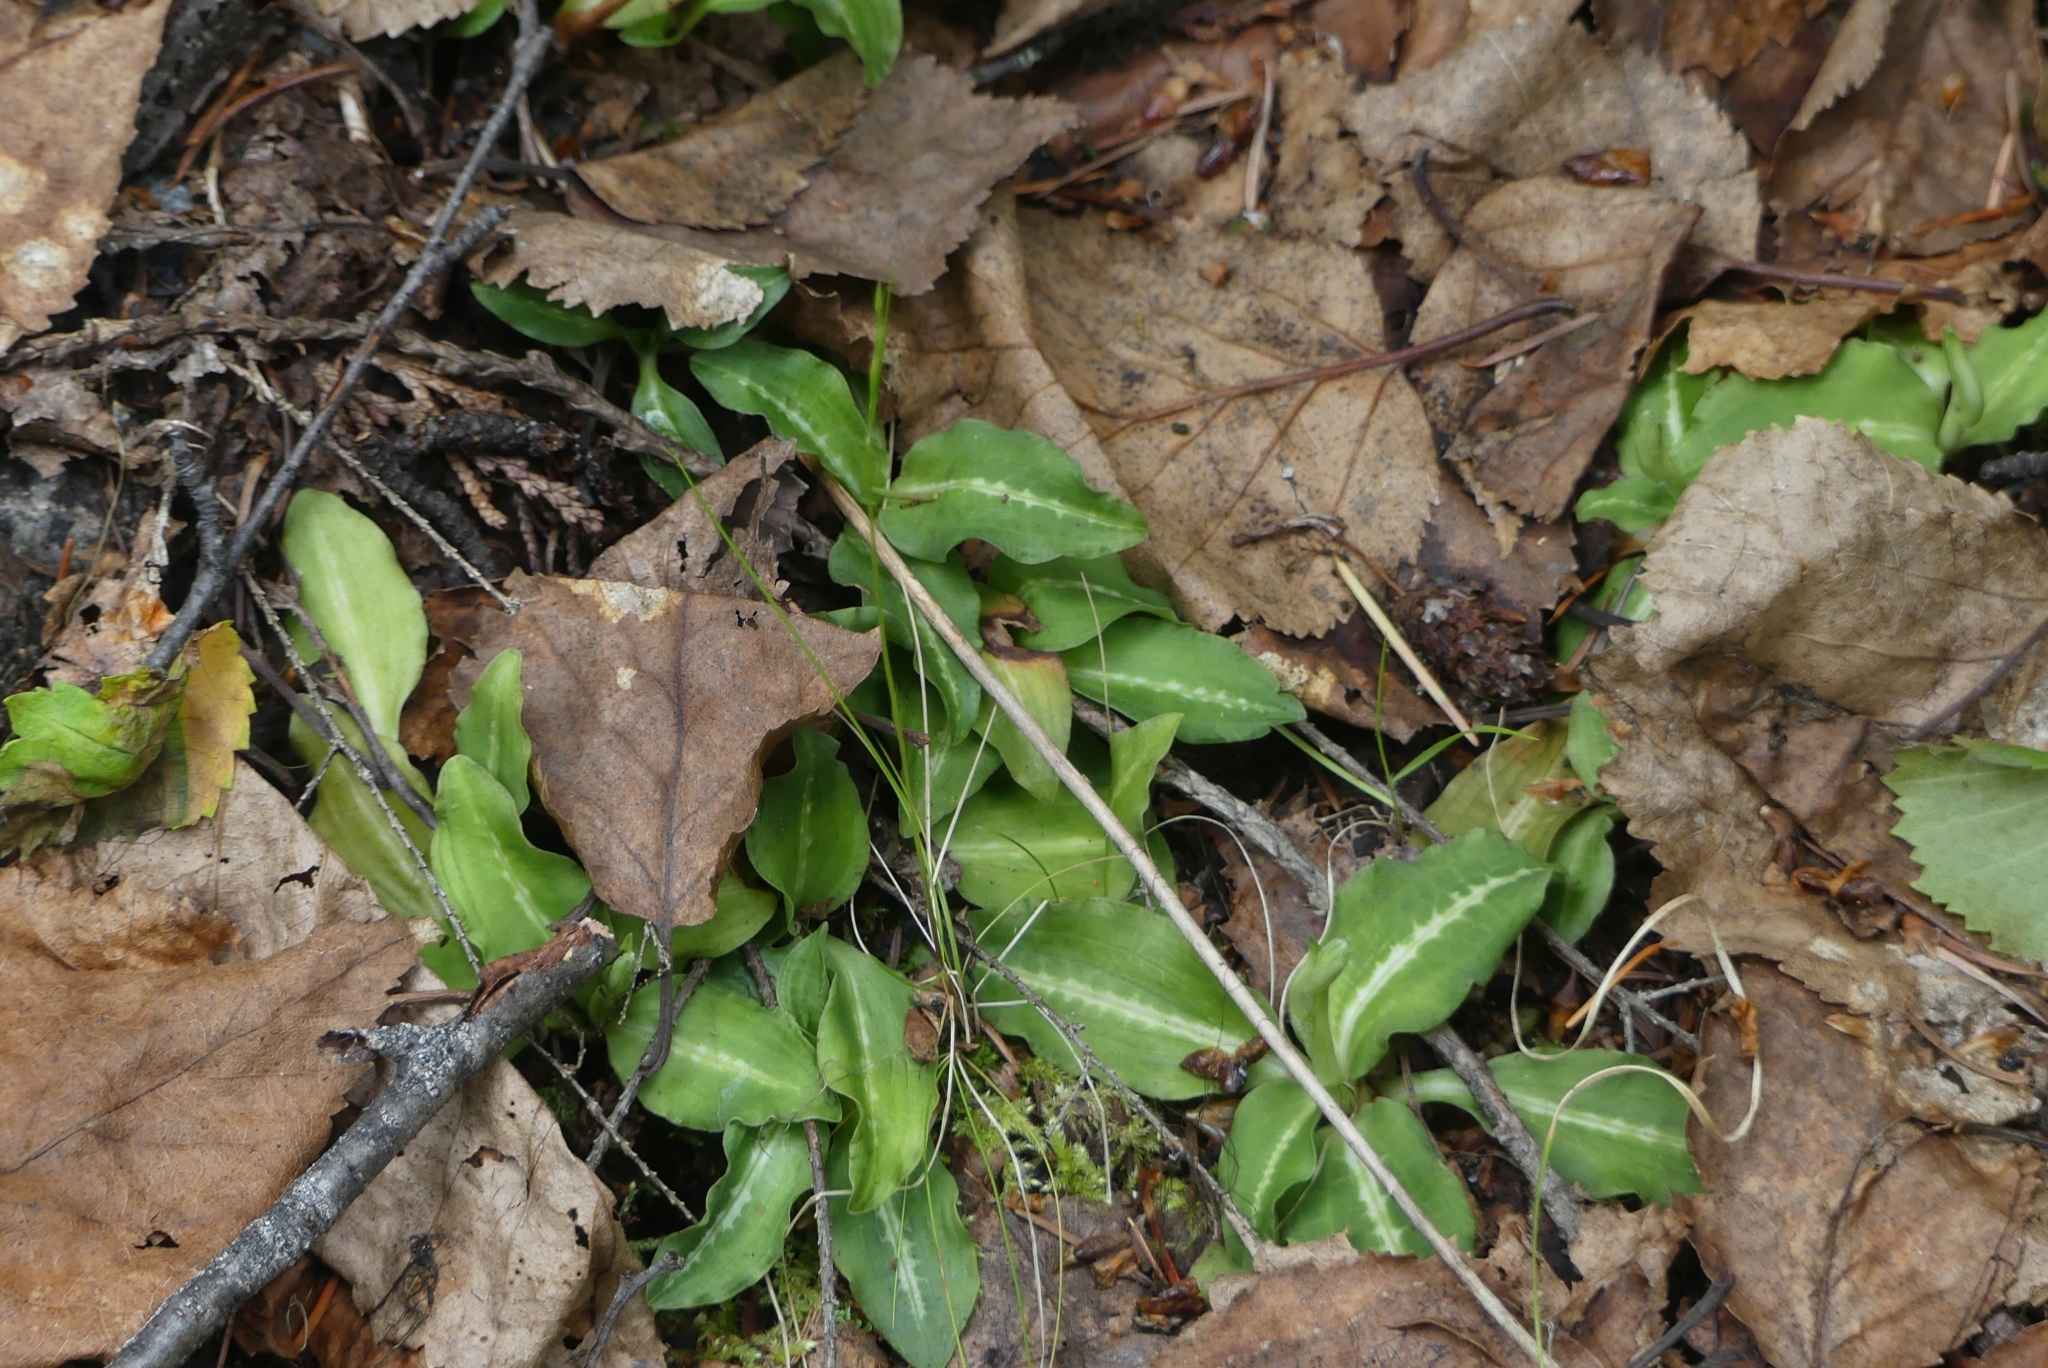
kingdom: Plantae
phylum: Tracheophyta
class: Liliopsida
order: Asparagales
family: Orchidaceae
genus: Goodyera
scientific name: Goodyera oblongifolia
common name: Giant rattlesnake-plantain
